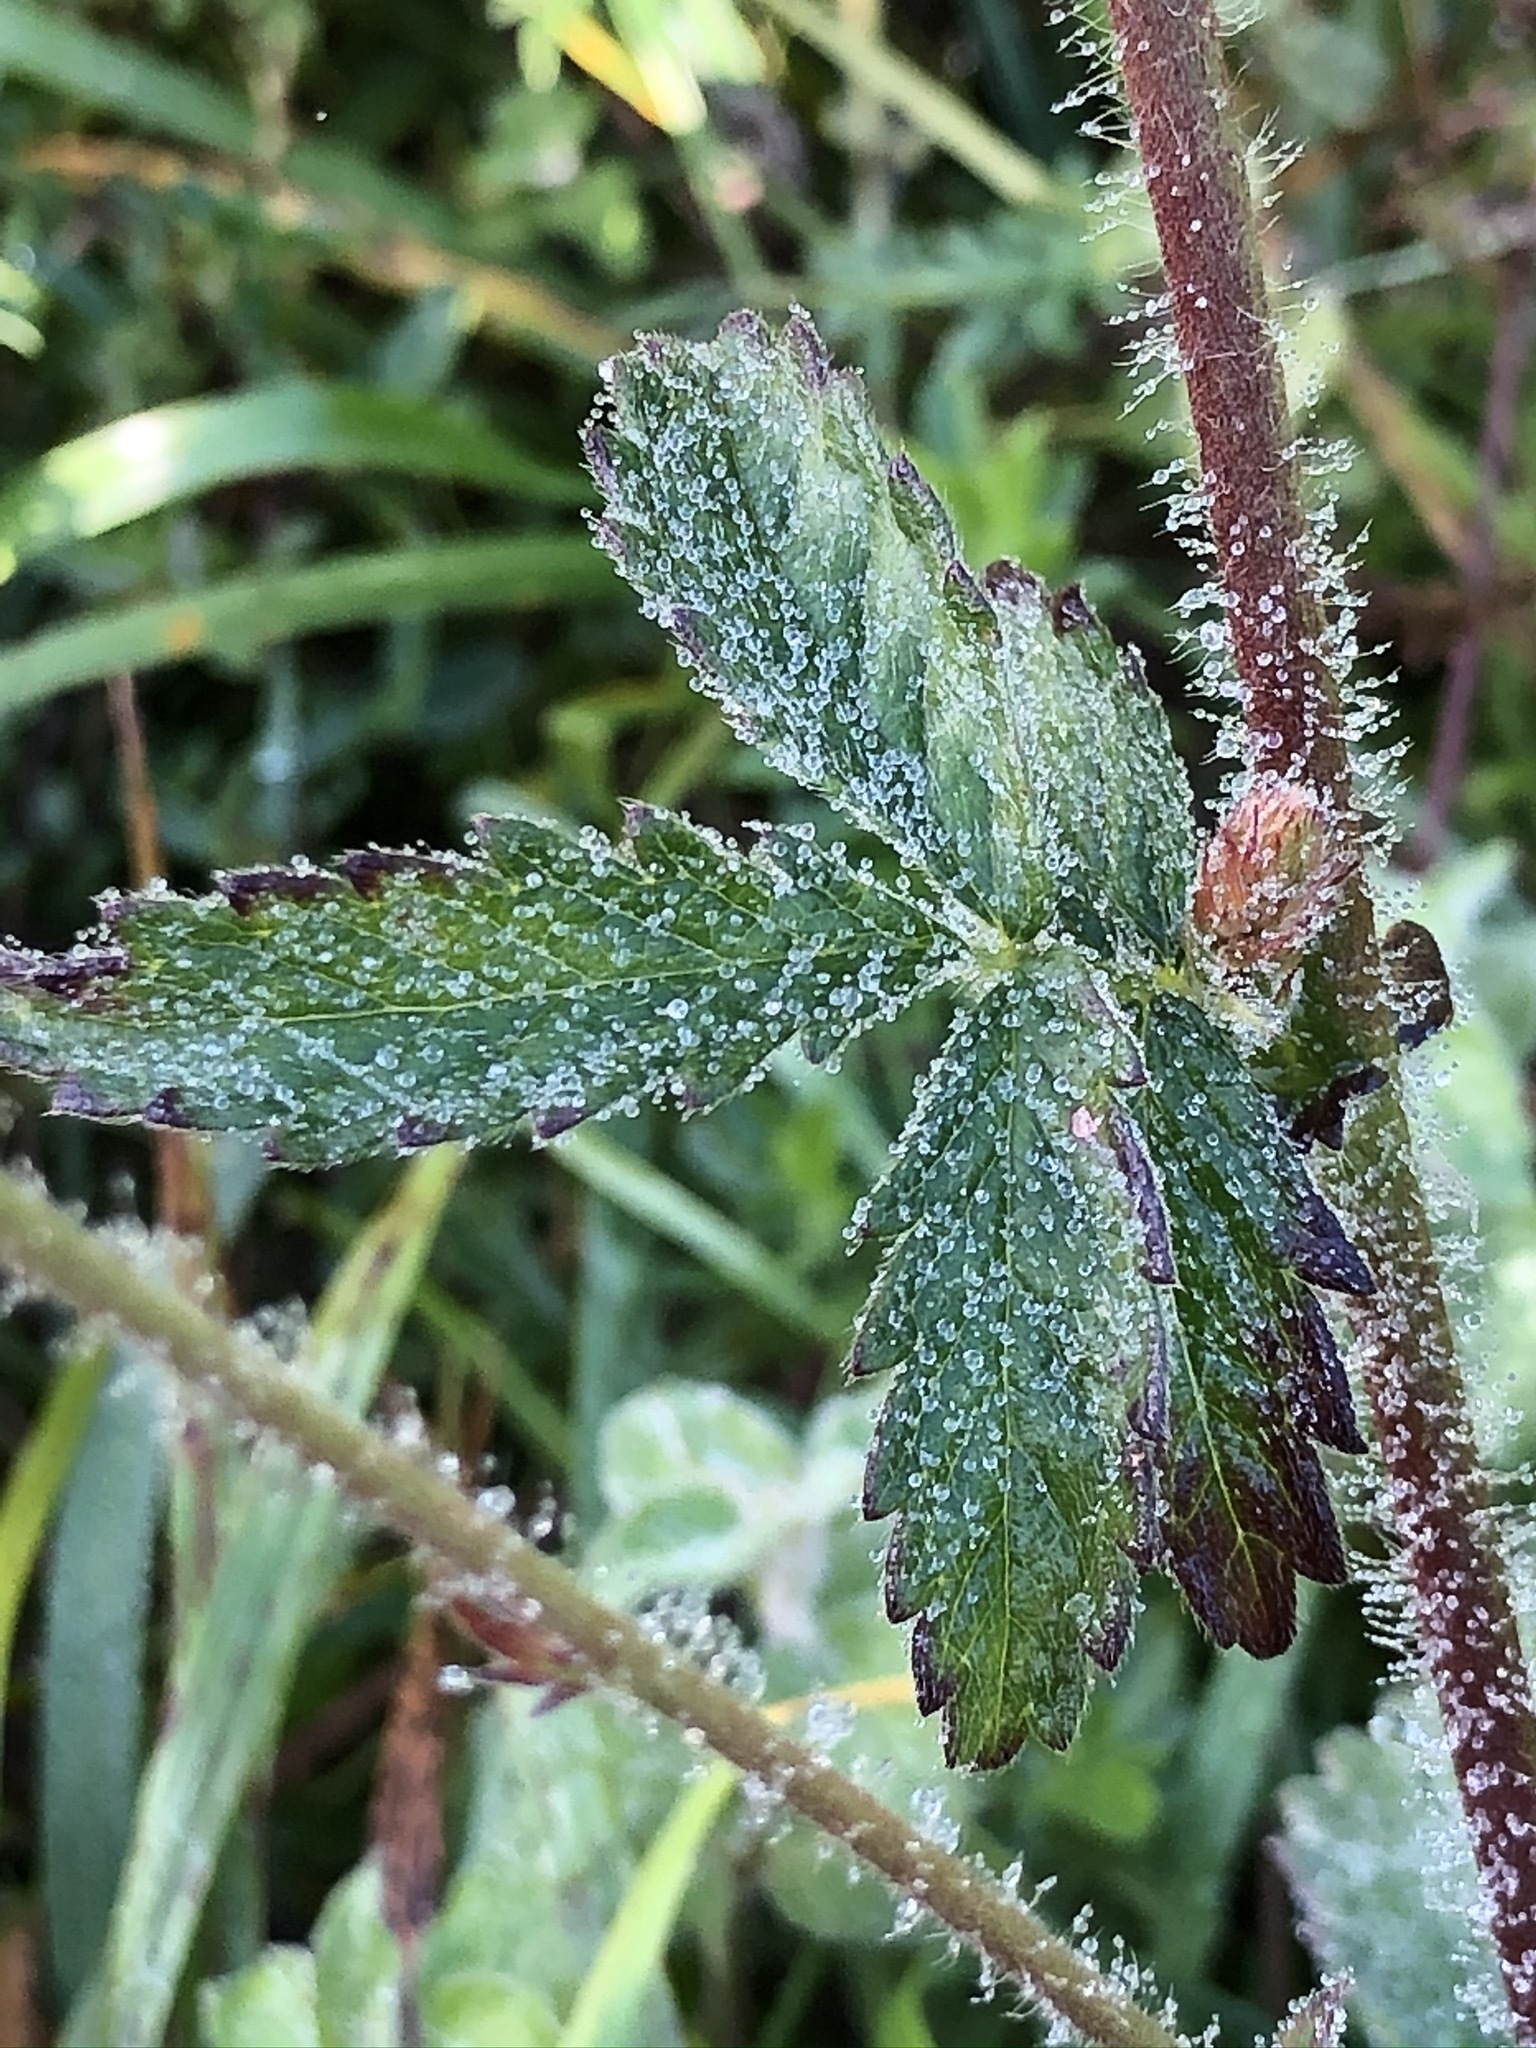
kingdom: Plantae
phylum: Tracheophyta
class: Magnoliopsida
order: Rosales
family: Rosaceae
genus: Agrimonia
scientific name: Agrimonia eupatoria
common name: Agrimony
